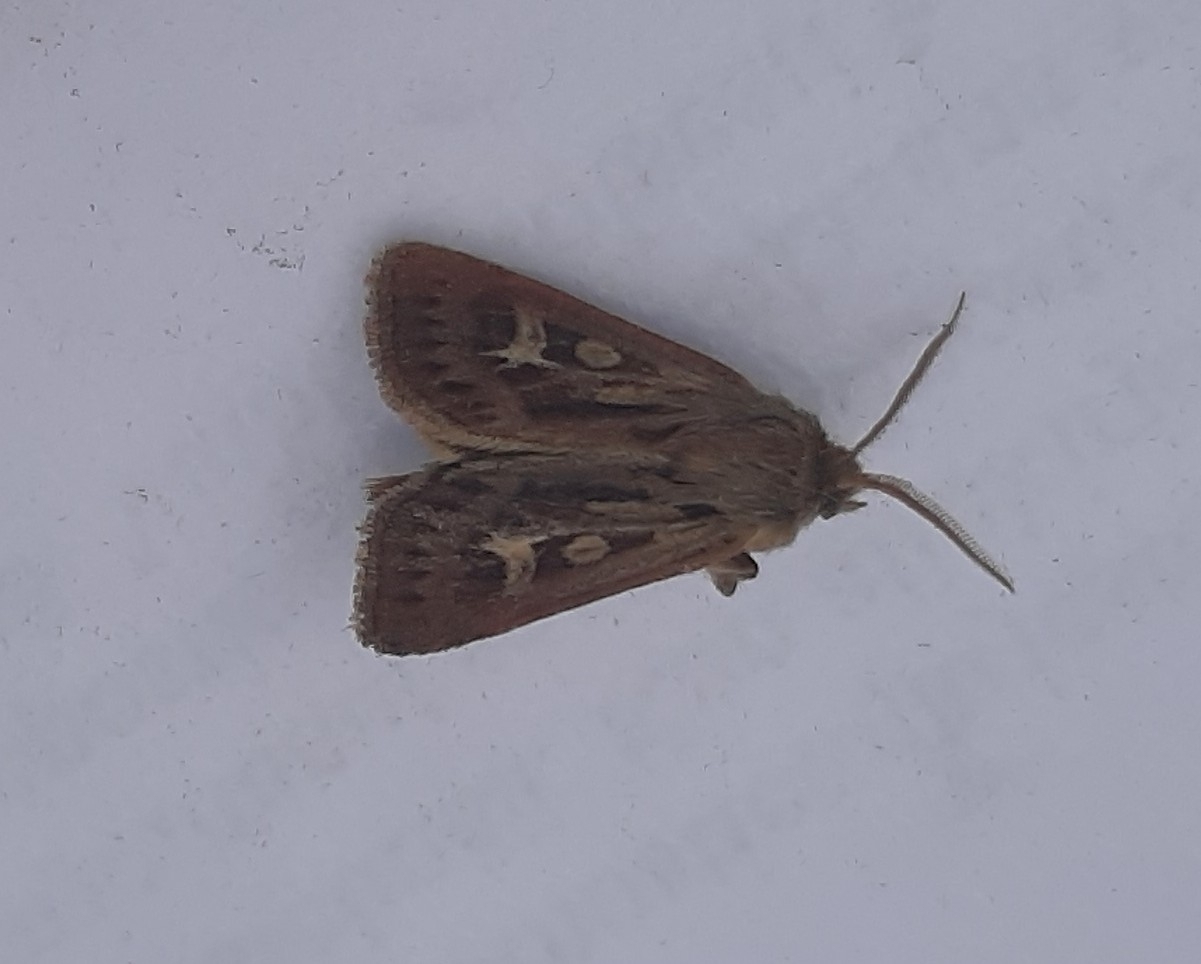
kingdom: Animalia
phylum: Arthropoda
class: Insecta
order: Lepidoptera
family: Noctuidae
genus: Cerapteryx
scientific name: Cerapteryx graminis
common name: Antler moth
